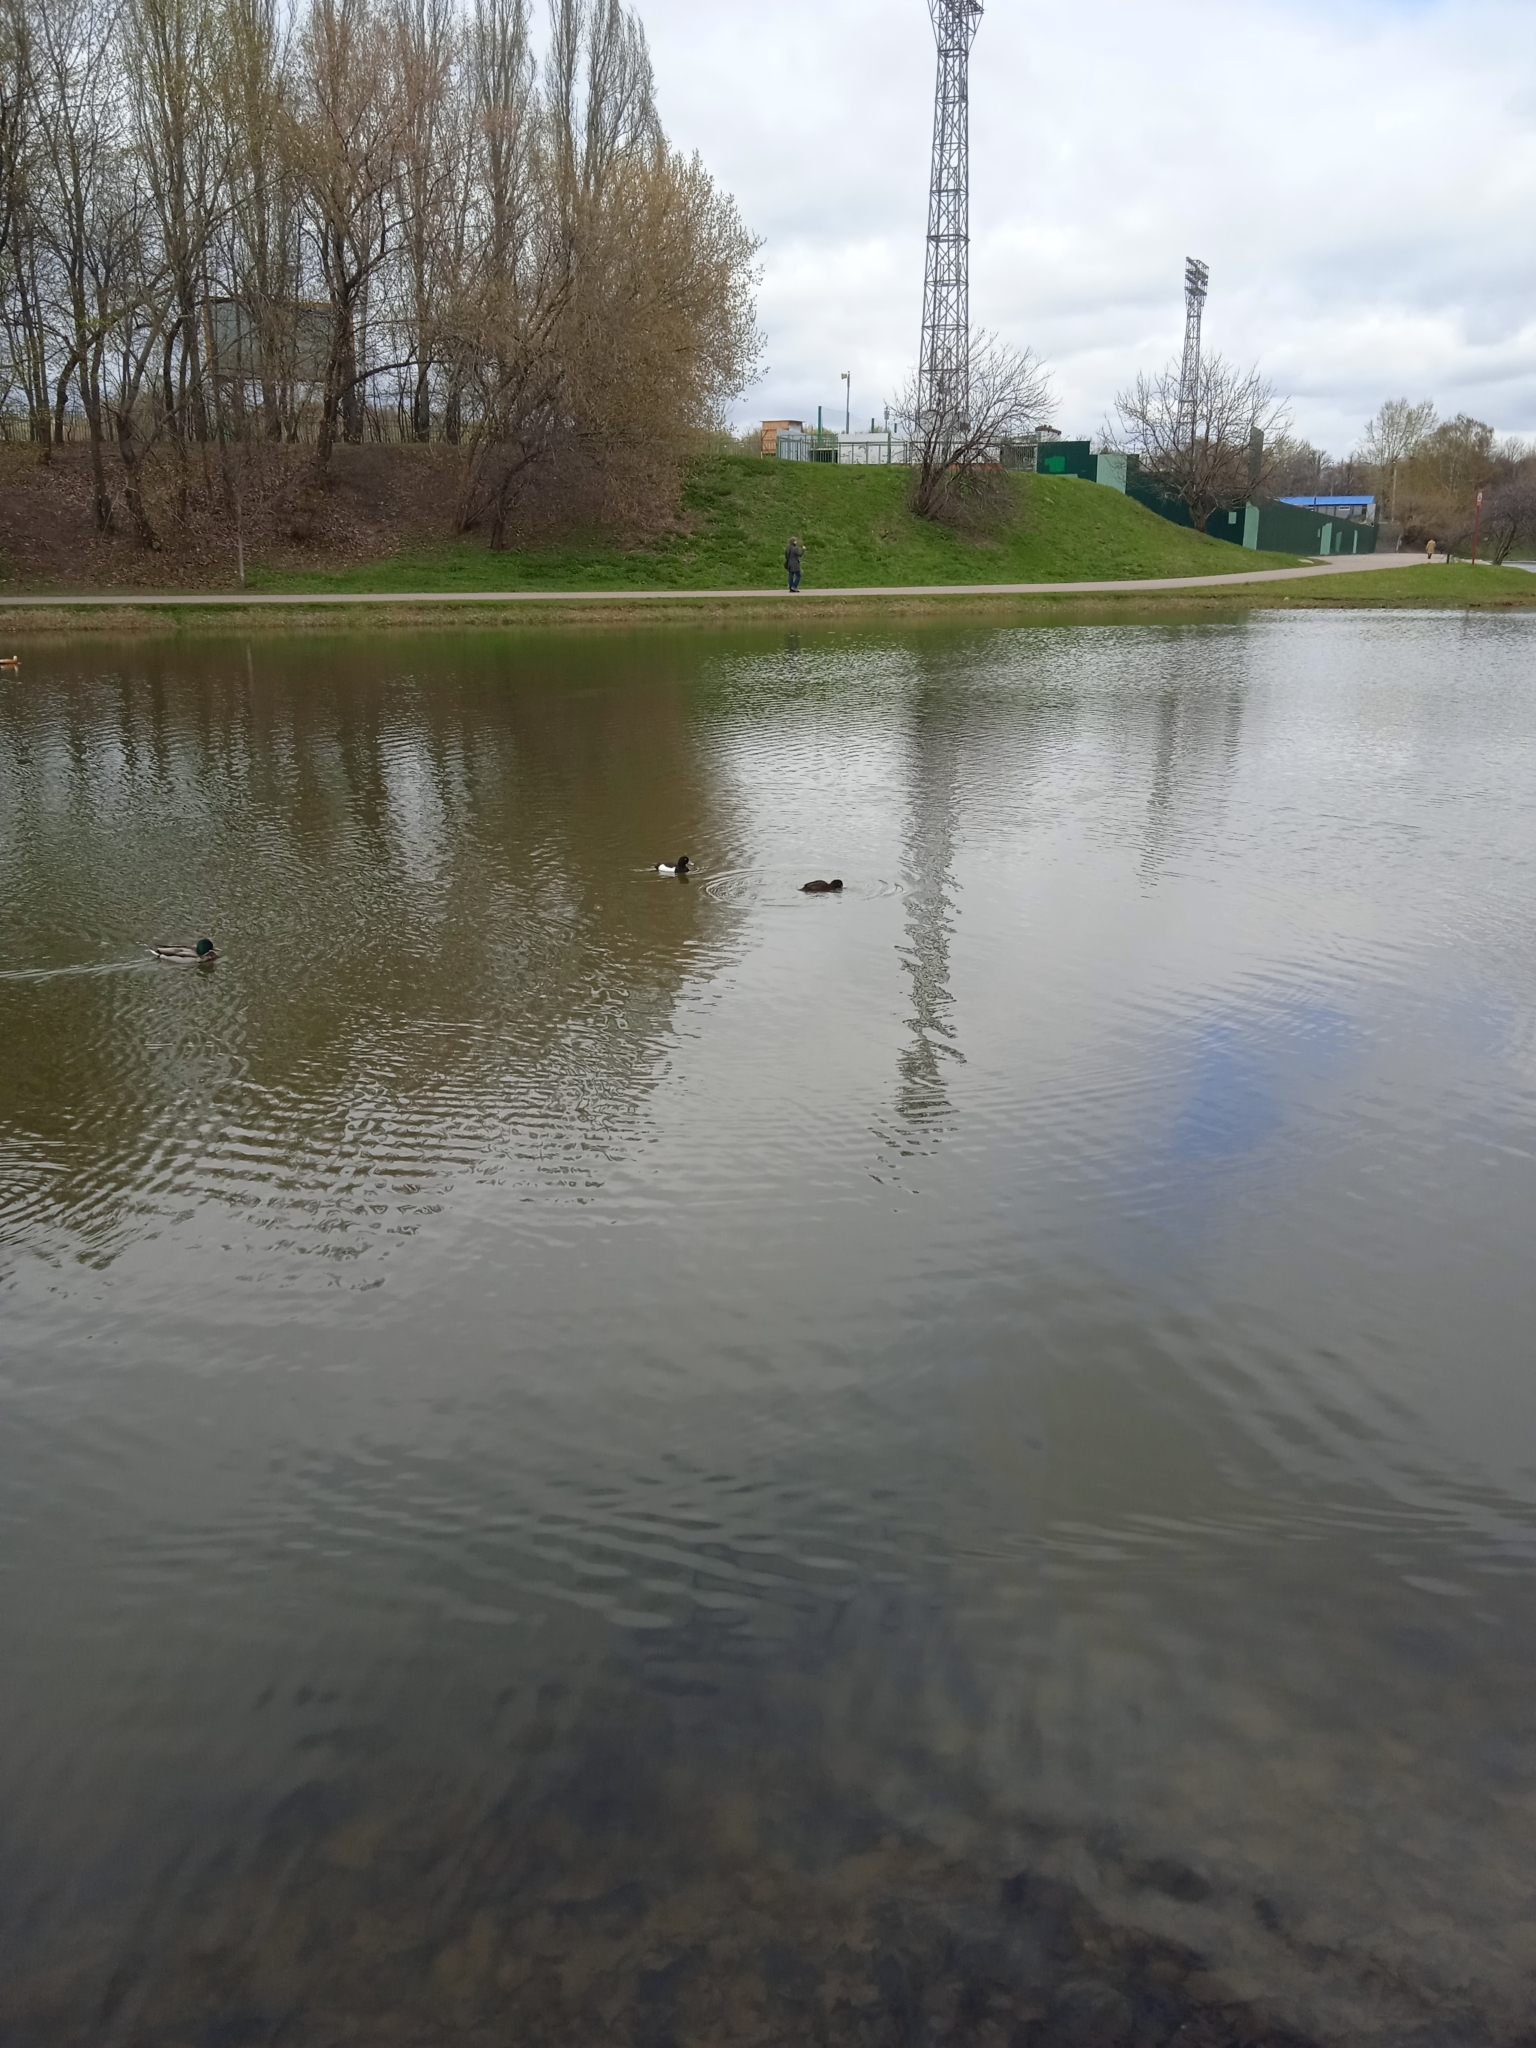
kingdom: Animalia
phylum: Chordata
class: Aves
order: Anseriformes
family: Anatidae
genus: Aythya
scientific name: Aythya fuligula
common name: Tufted duck
